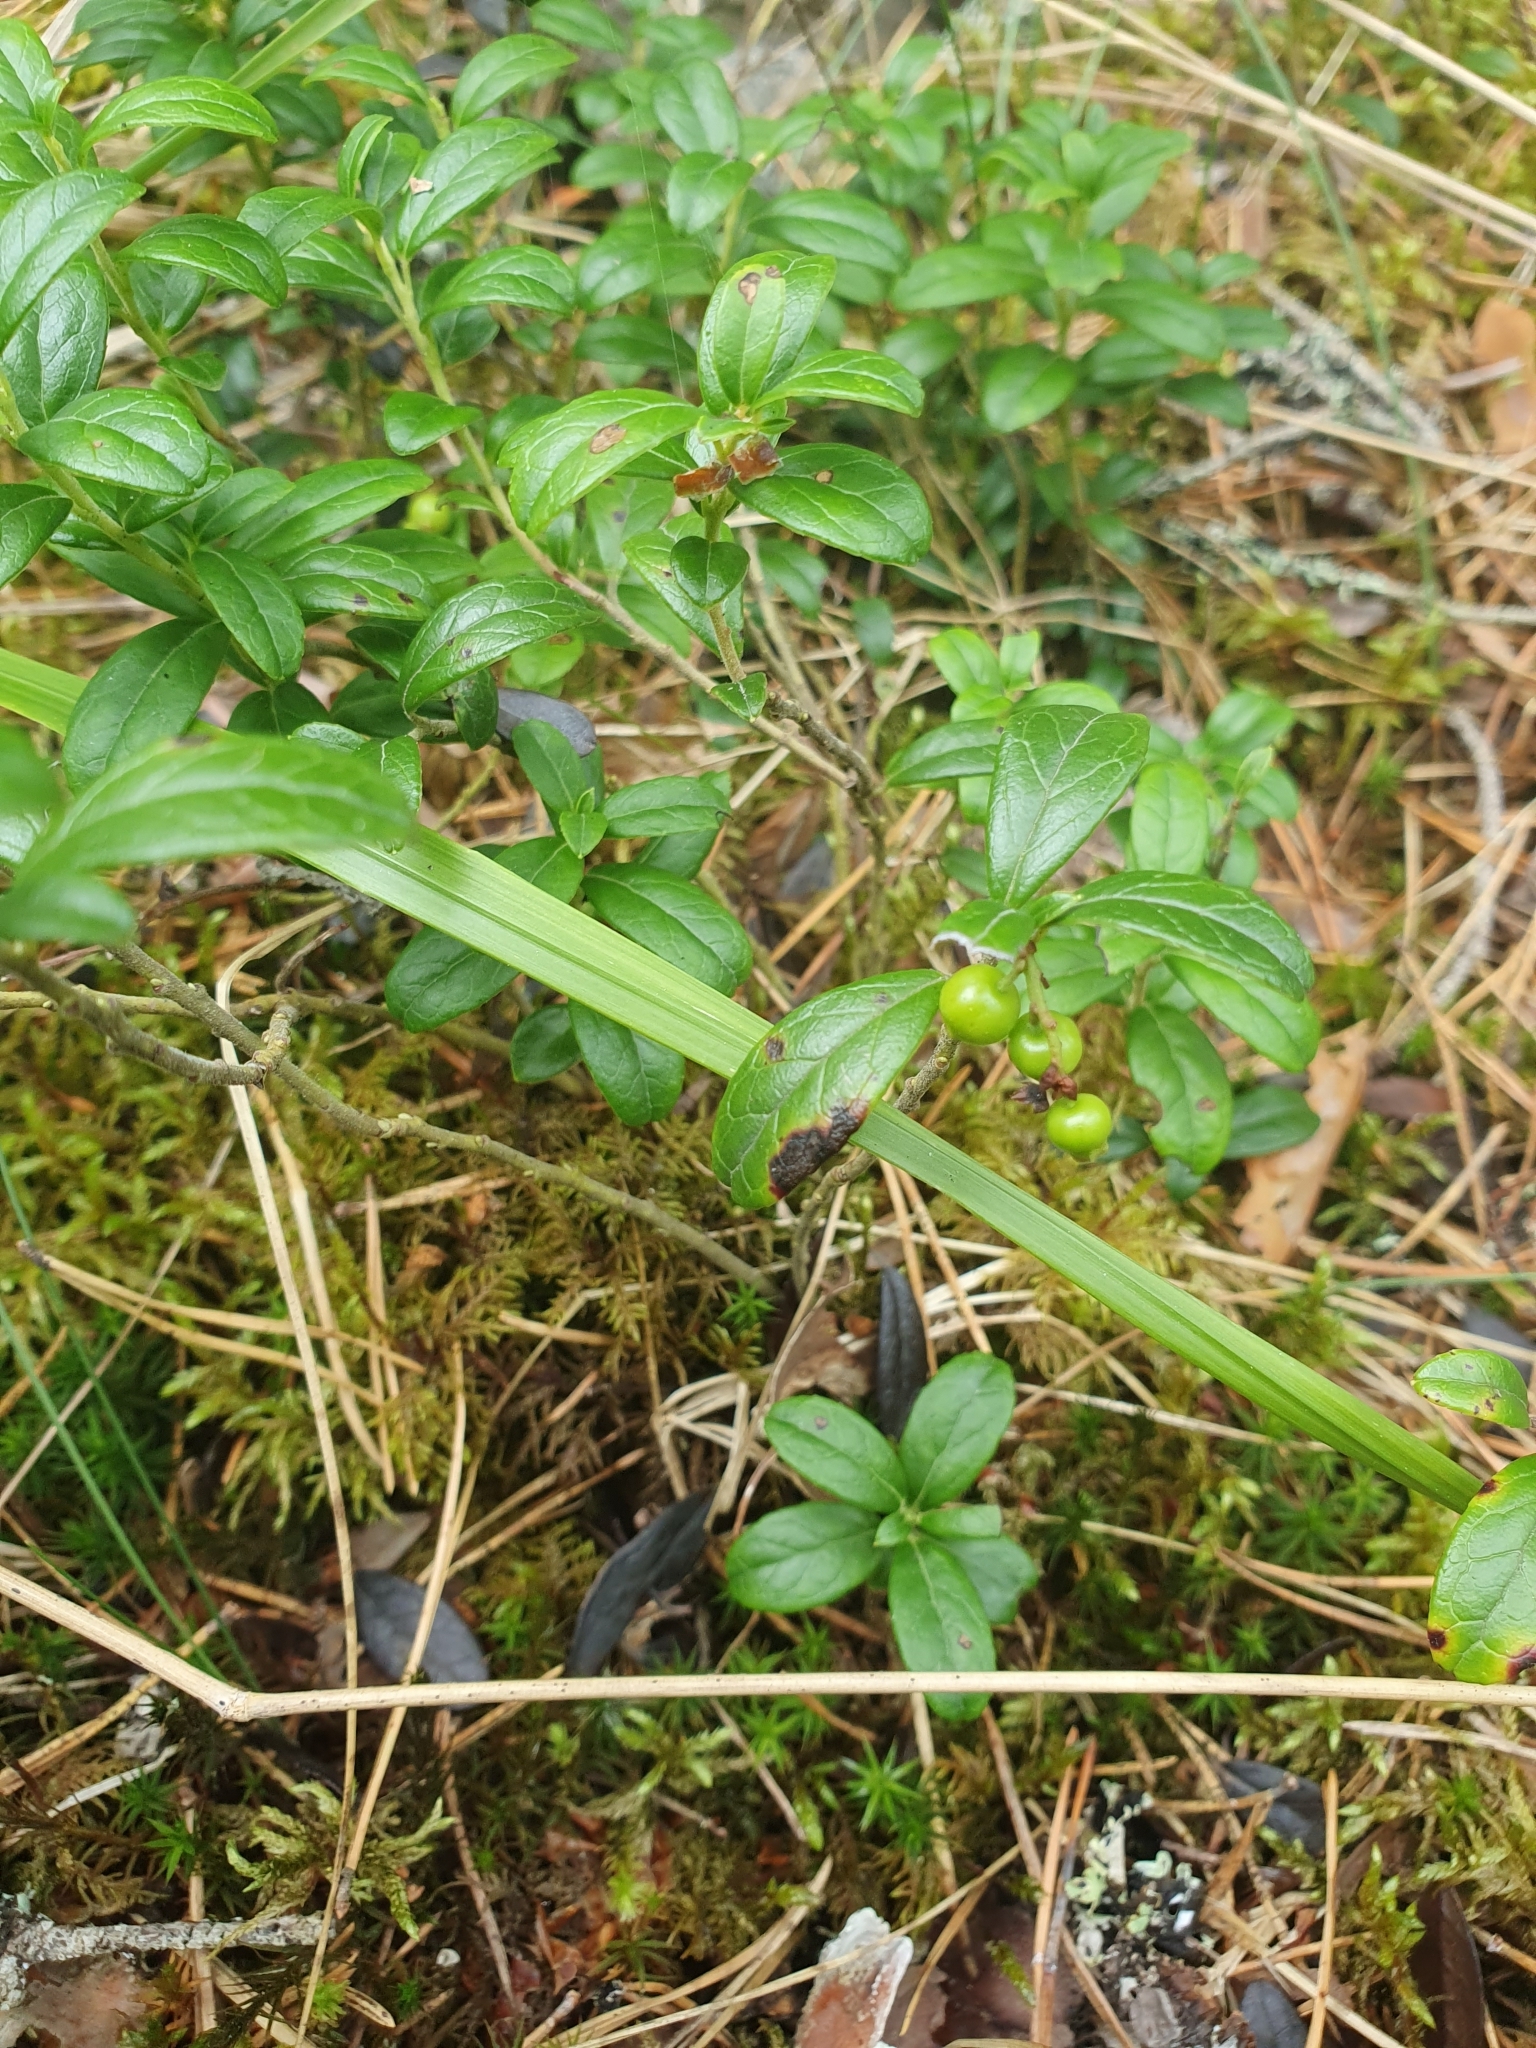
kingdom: Plantae
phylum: Tracheophyta
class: Magnoliopsida
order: Ericales
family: Ericaceae
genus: Vaccinium
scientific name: Vaccinium vitis-idaea
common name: Cowberry
